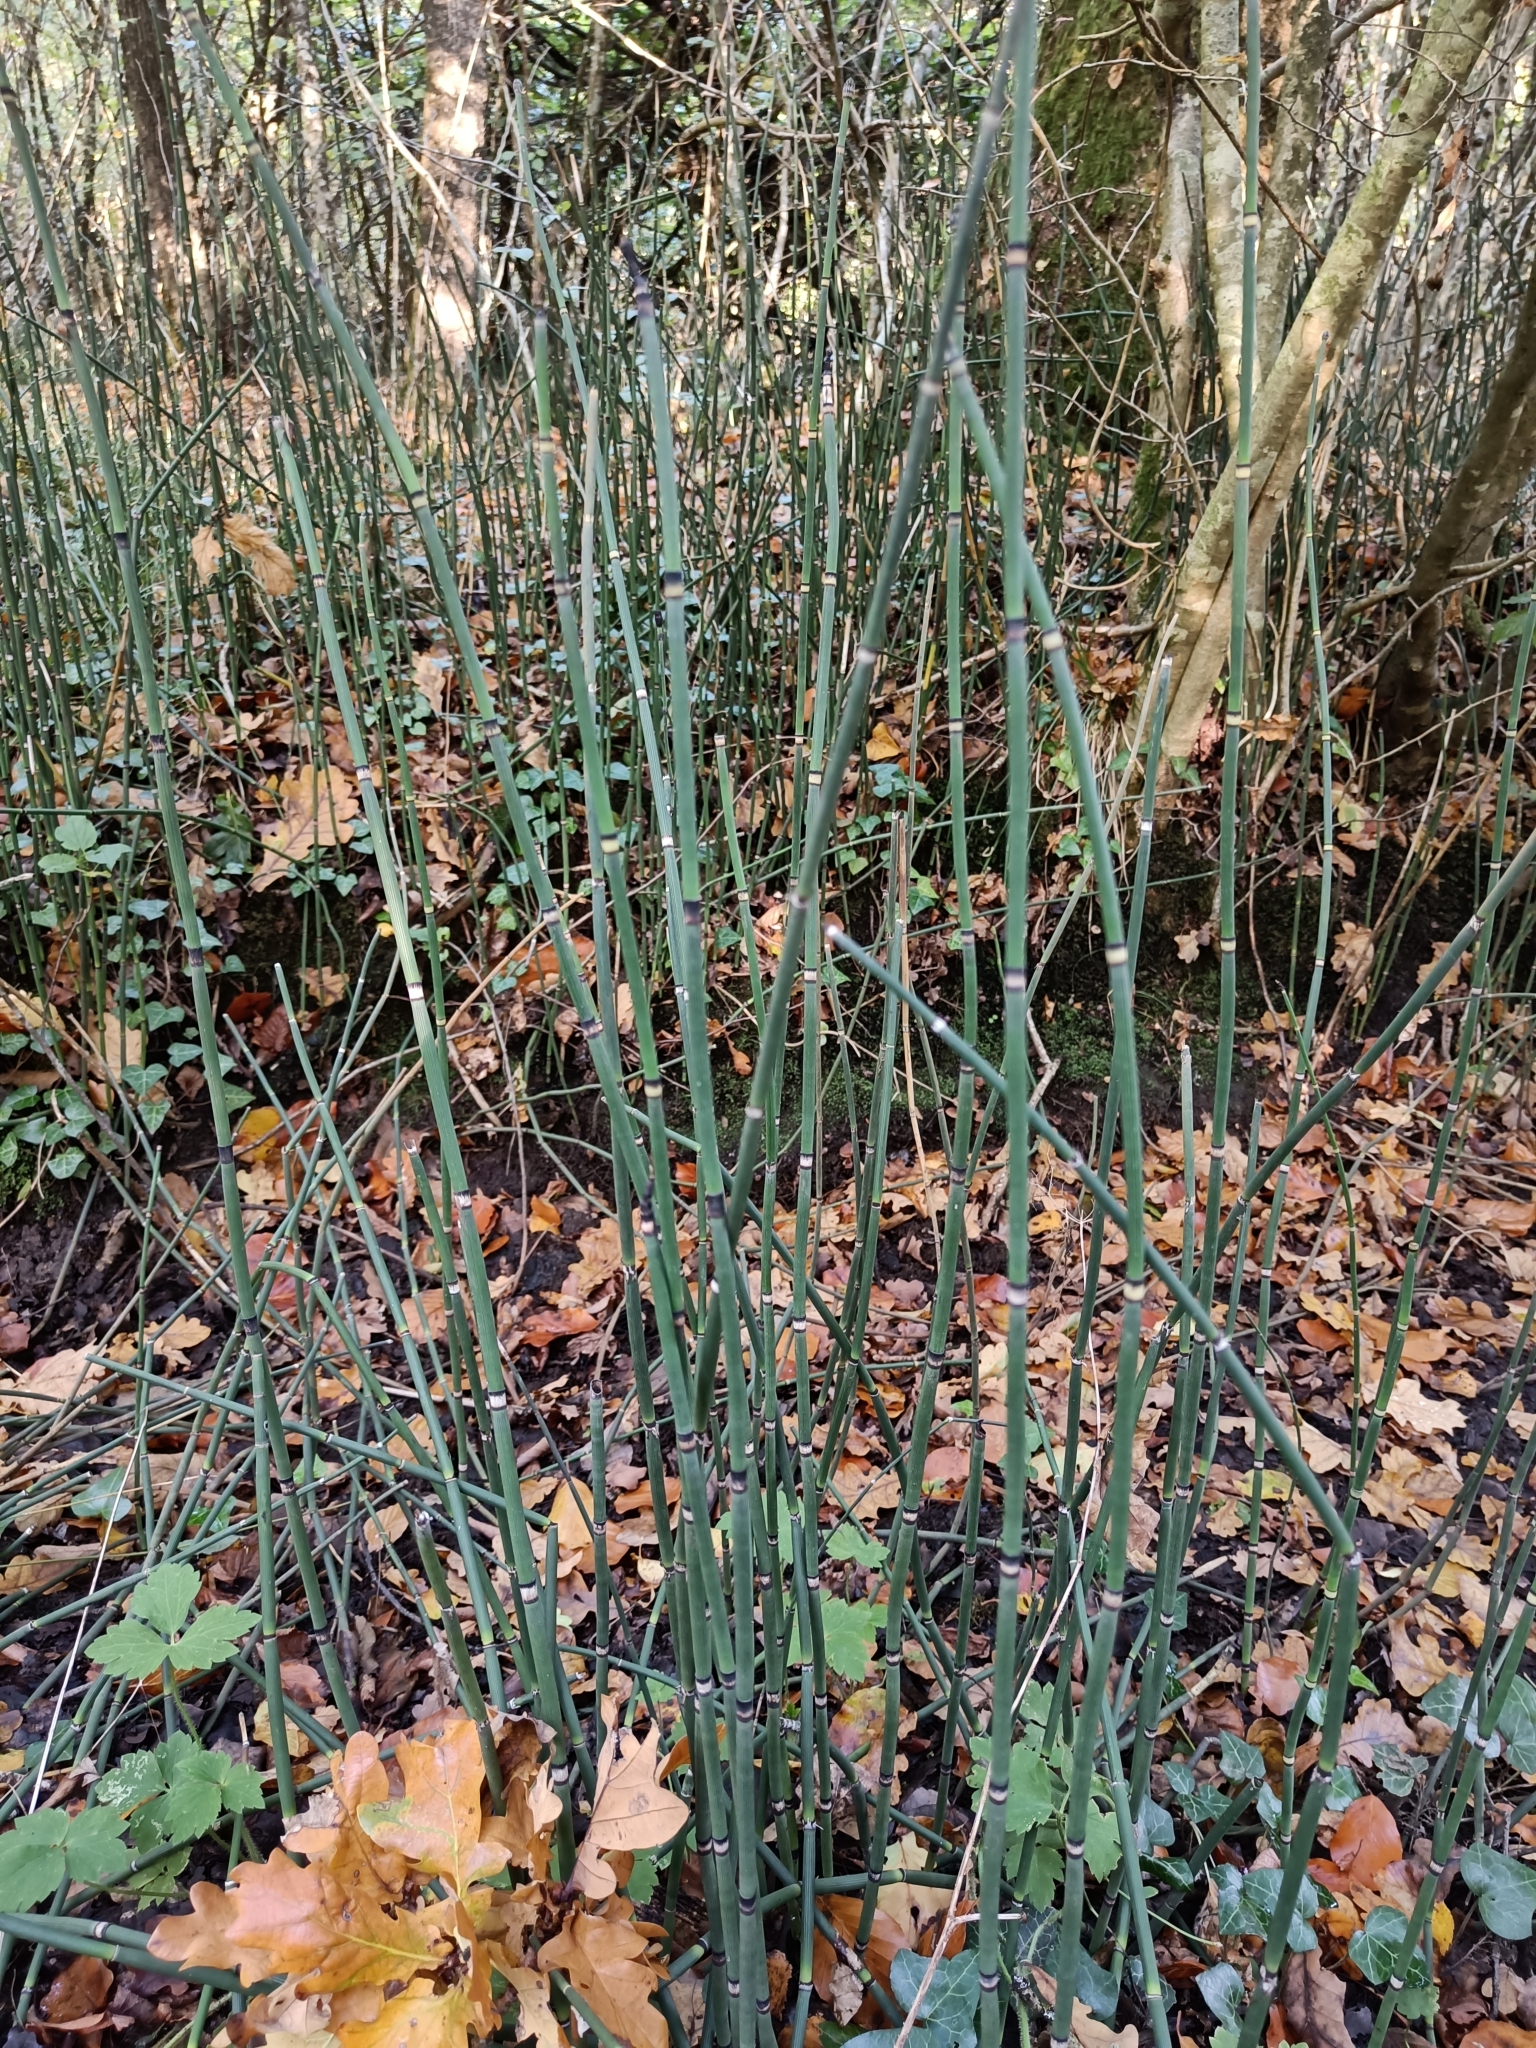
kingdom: Plantae
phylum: Tracheophyta
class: Polypodiopsida
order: Equisetales
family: Equisetaceae
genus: Equisetum
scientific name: Equisetum hyemale
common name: Rough horsetail
